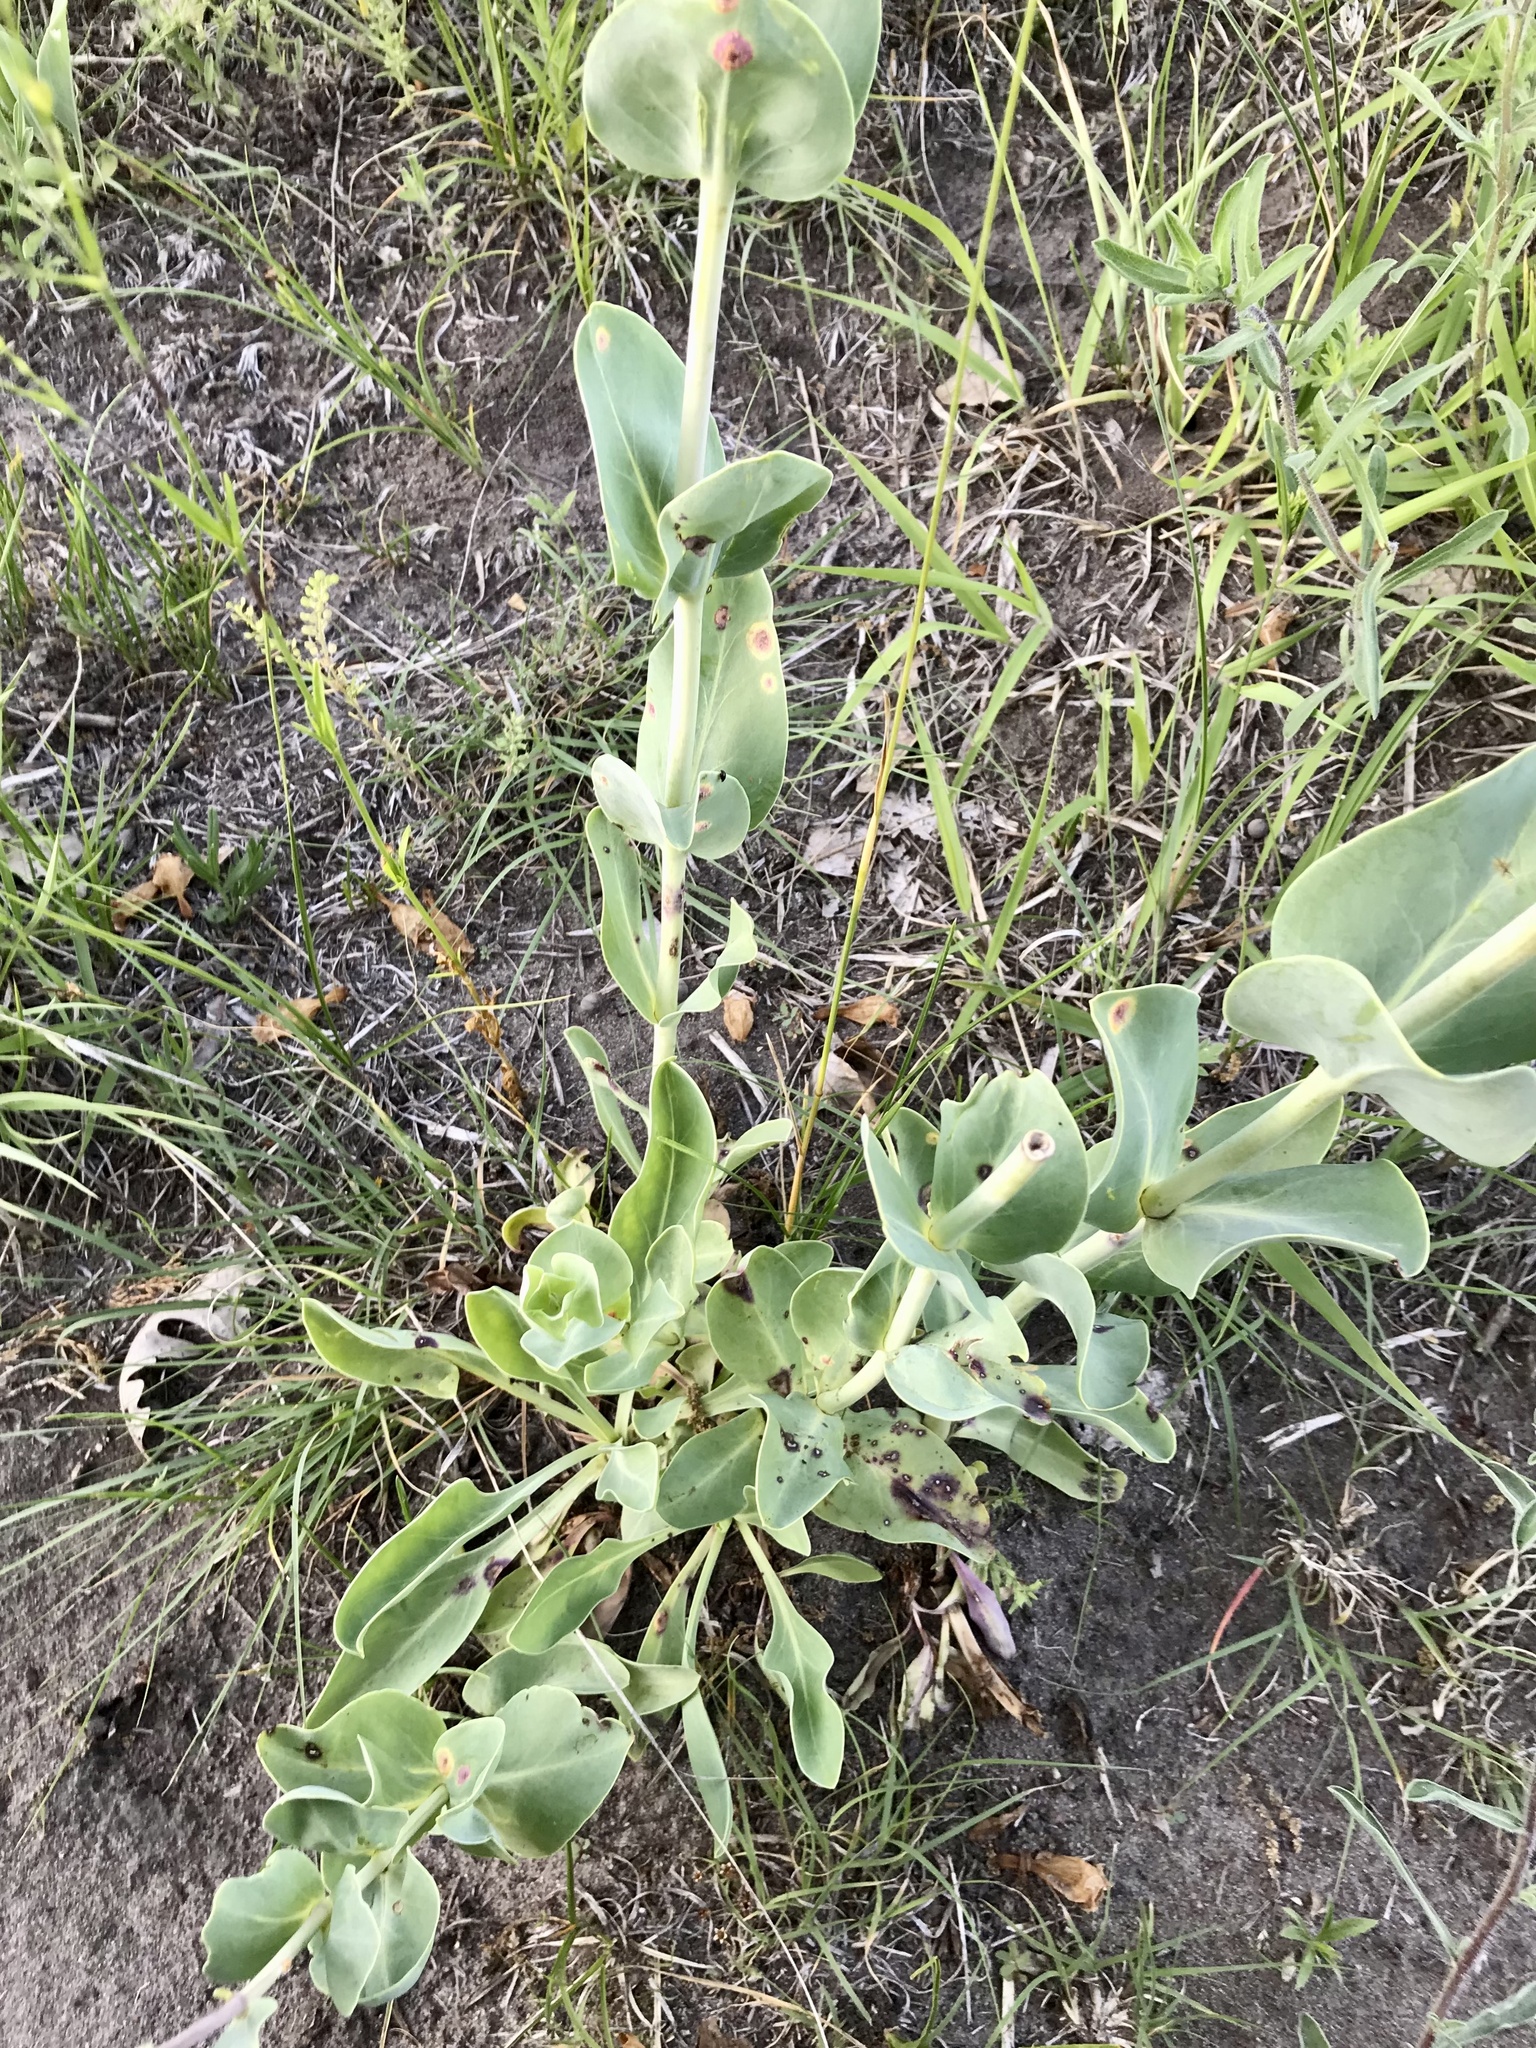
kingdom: Plantae
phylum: Tracheophyta
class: Magnoliopsida
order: Lamiales
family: Plantaginaceae
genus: Penstemon
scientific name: Penstemon
